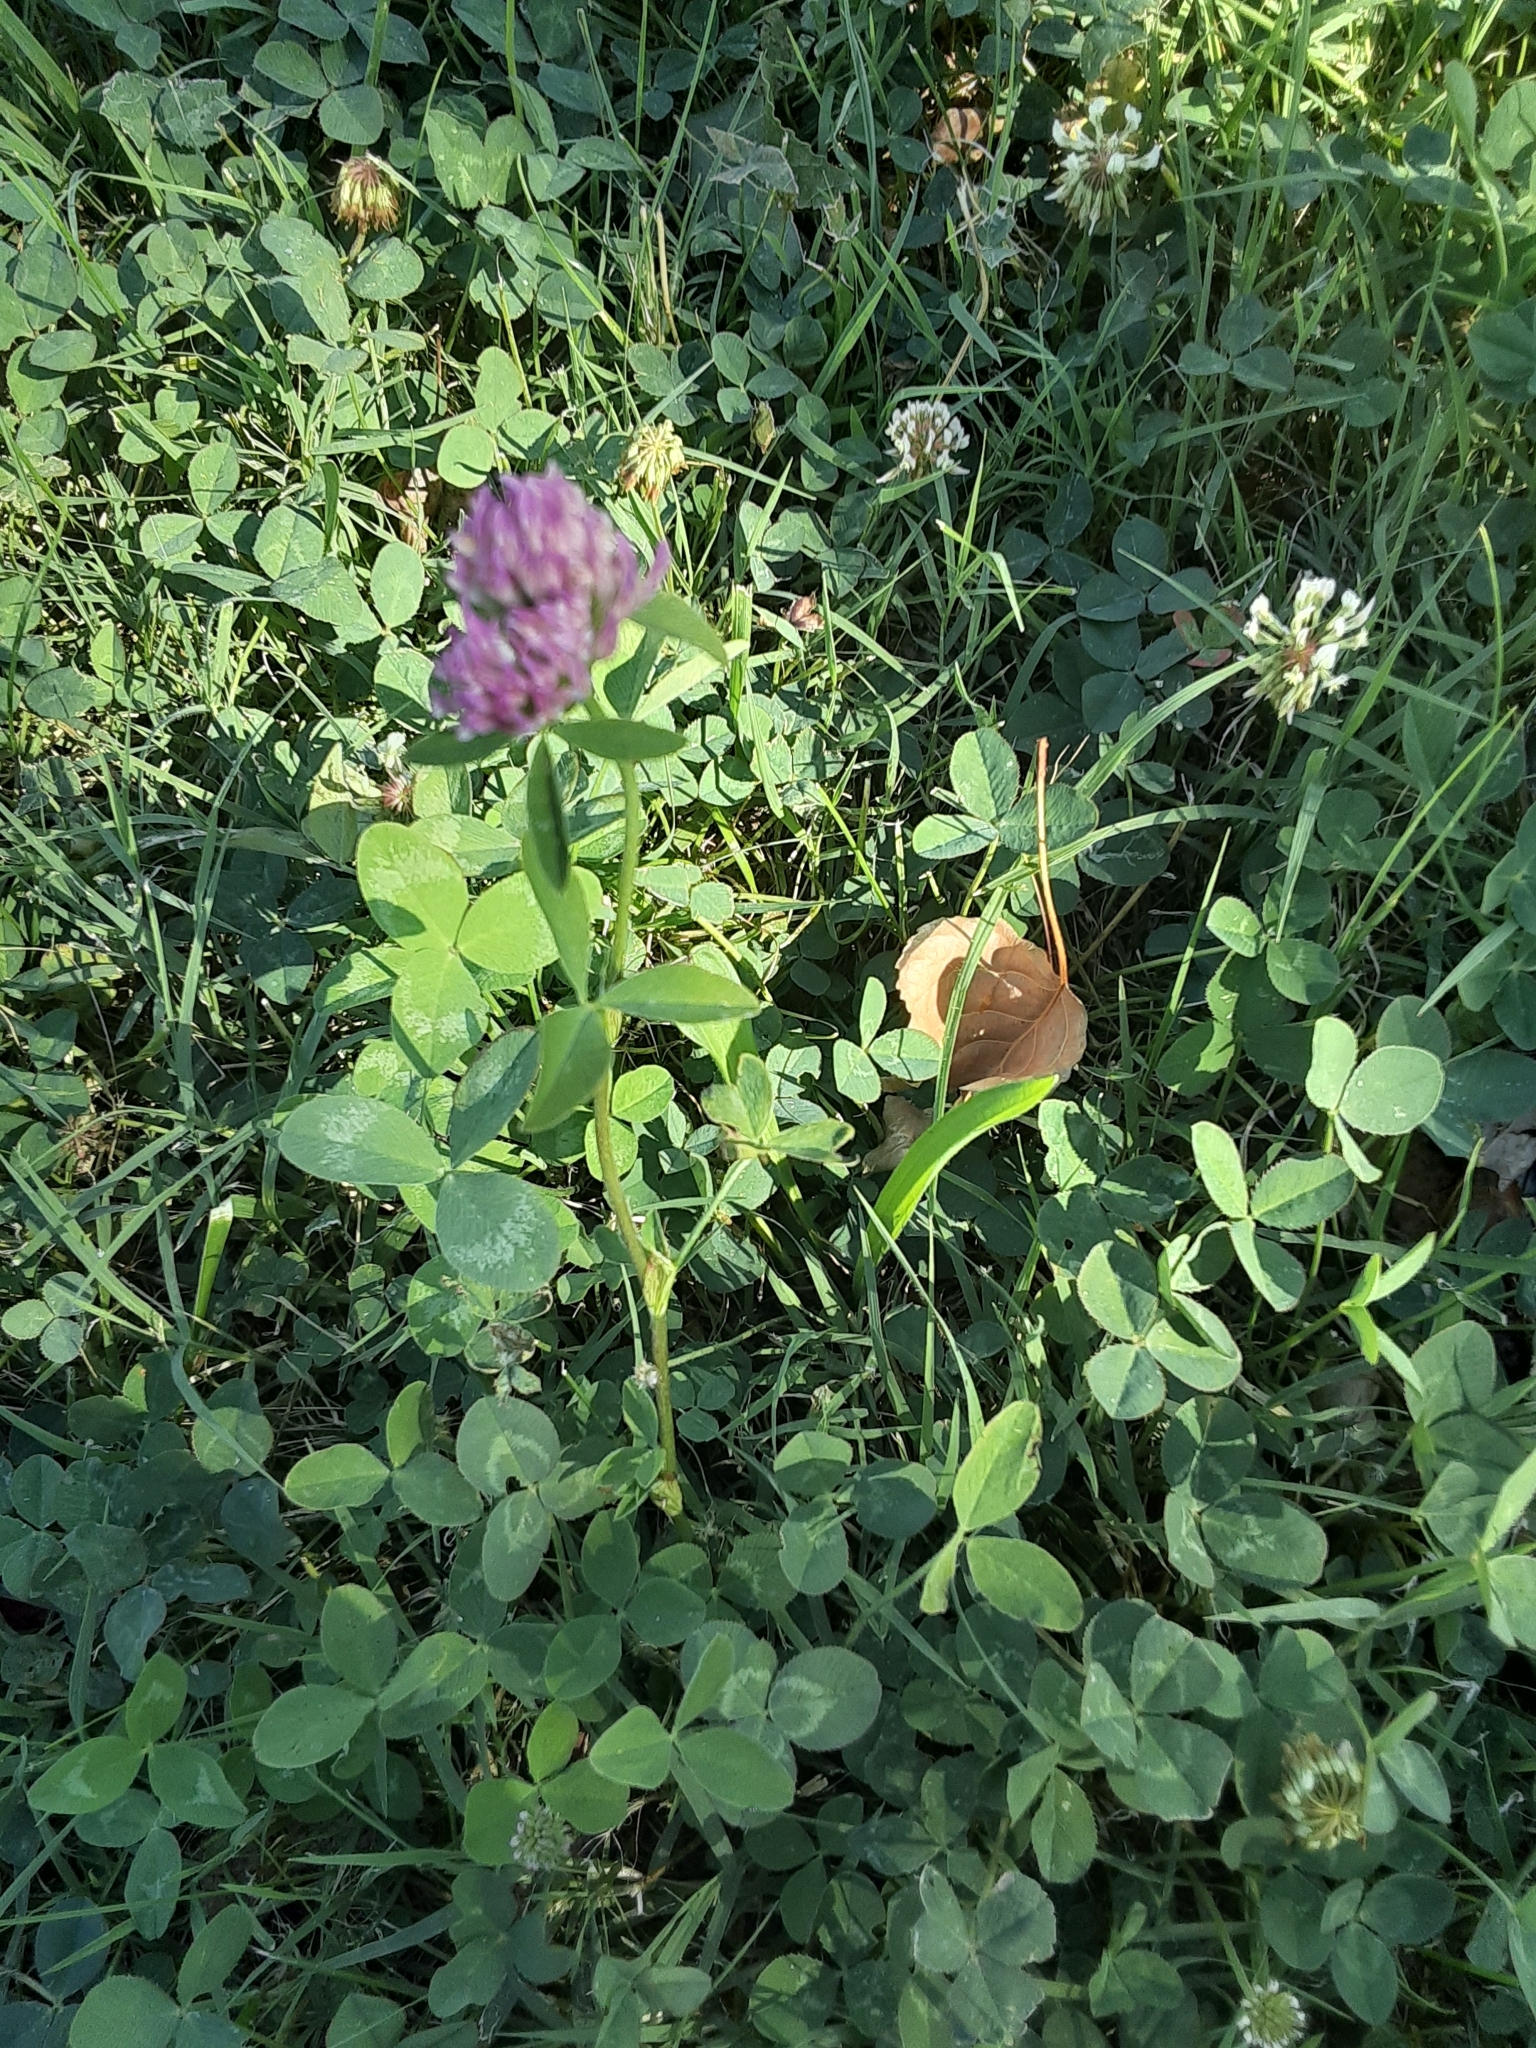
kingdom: Plantae
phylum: Tracheophyta
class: Magnoliopsida
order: Fabales
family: Fabaceae
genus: Trifolium
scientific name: Trifolium pratense
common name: Red clover
